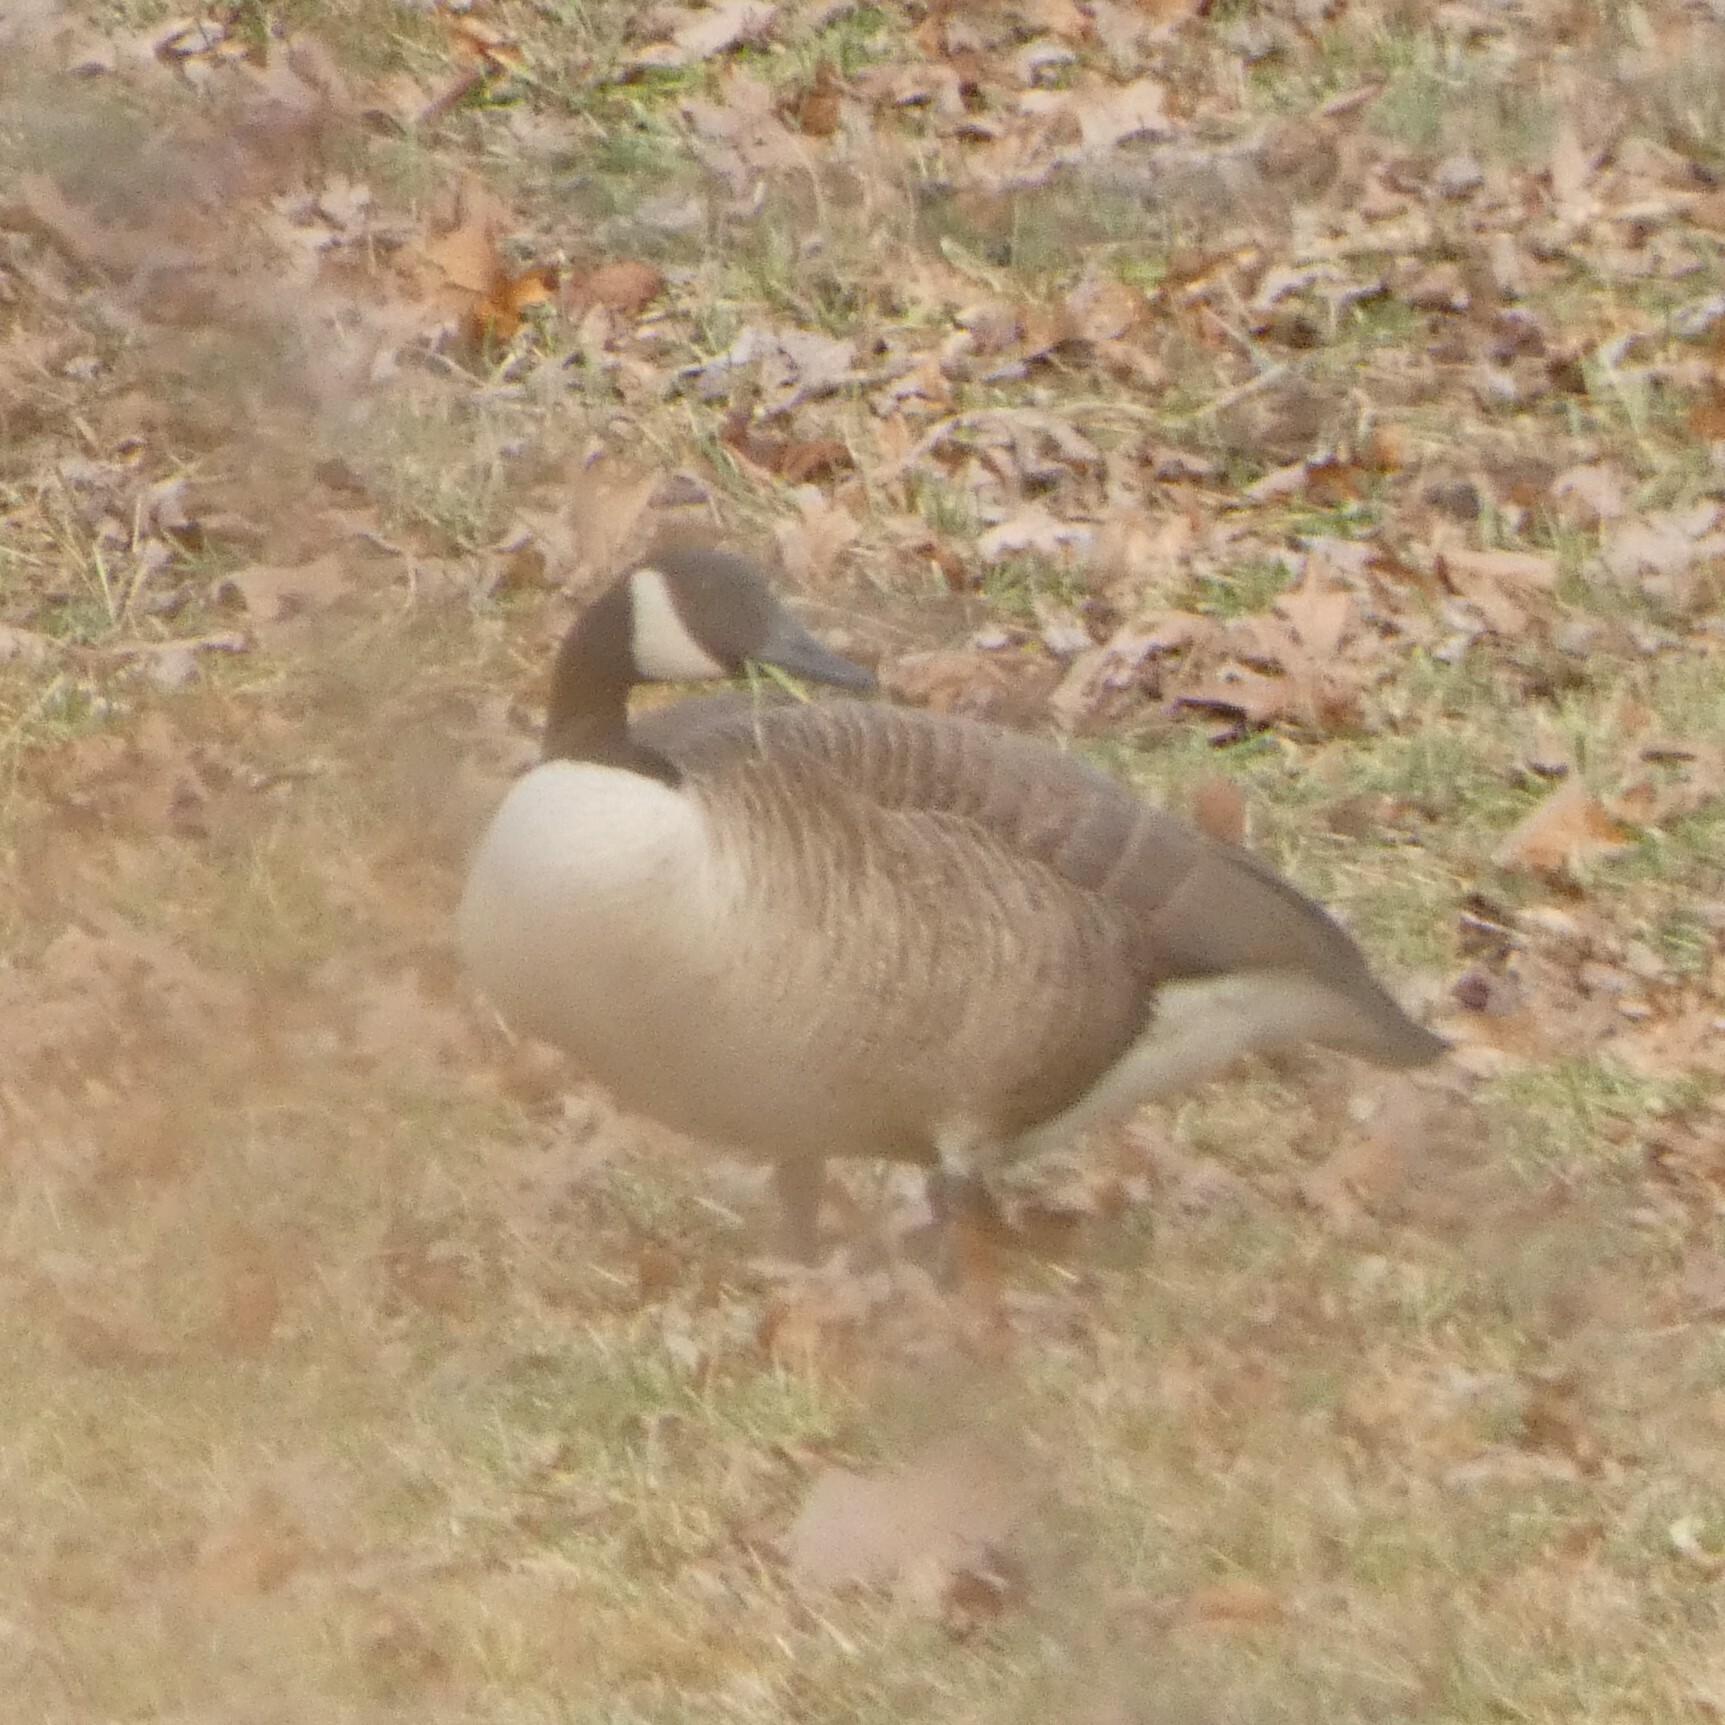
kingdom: Animalia
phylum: Chordata
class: Aves
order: Anseriformes
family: Anatidae
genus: Branta
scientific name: Branta canadensis
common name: Canada goose
